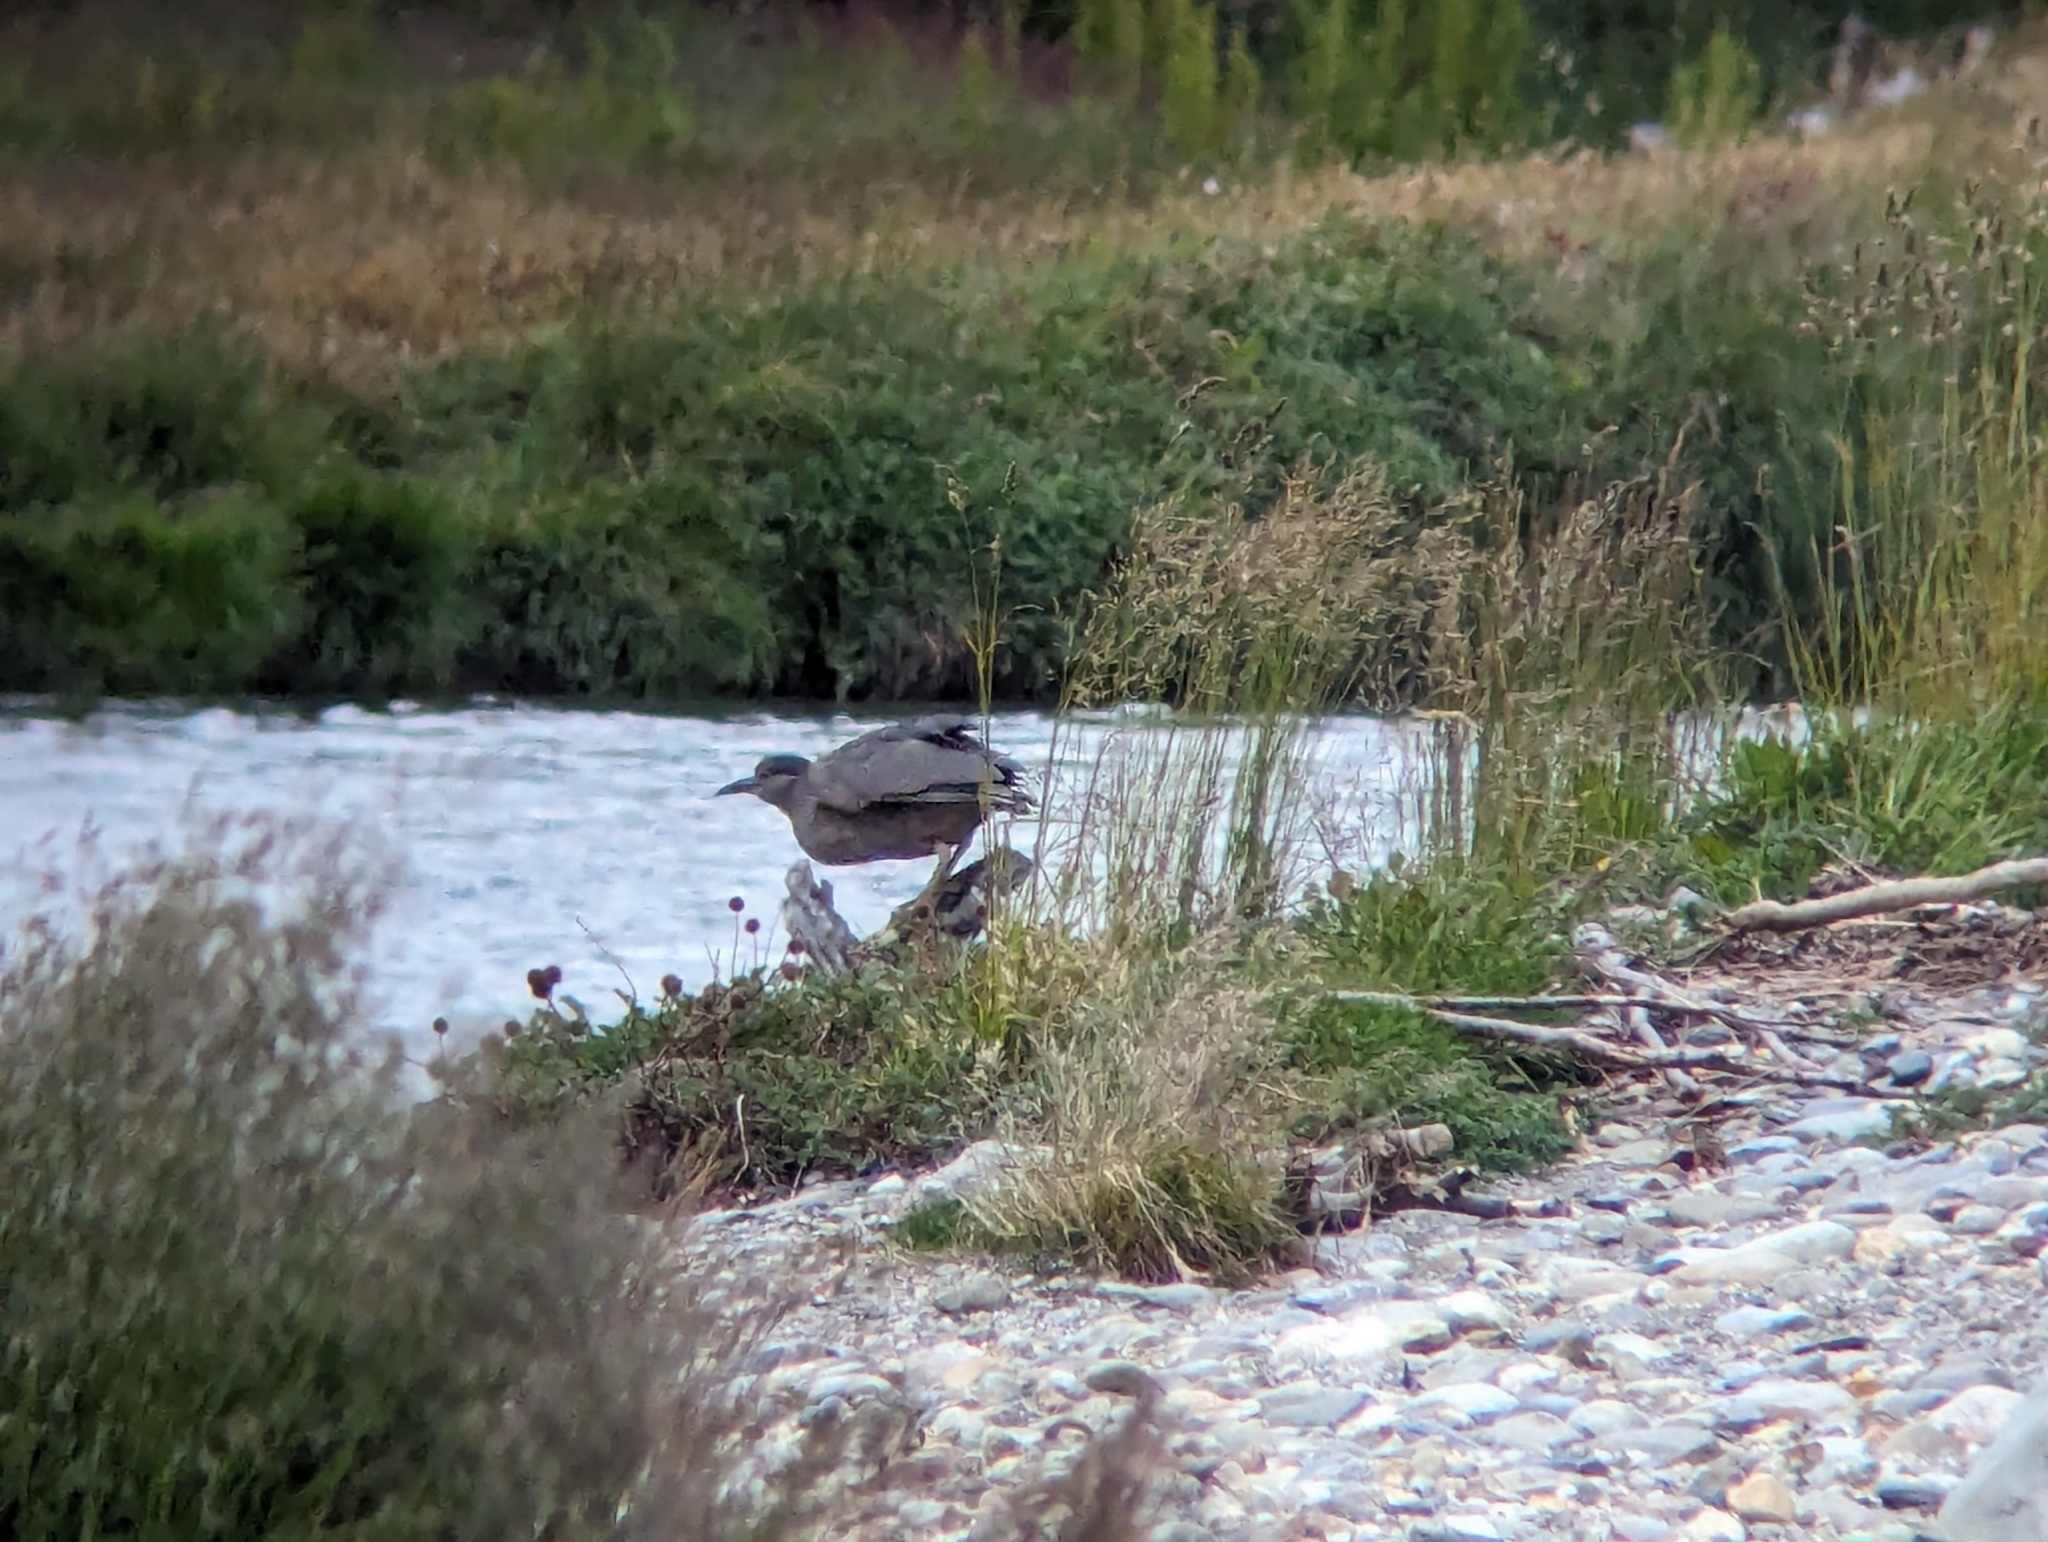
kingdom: Animalia
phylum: Chordata
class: Aves
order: Pelecaniformes
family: Ardeidae
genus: Nycticorax
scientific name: Nycticorax nycticorax
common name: Black-crowned night heron
